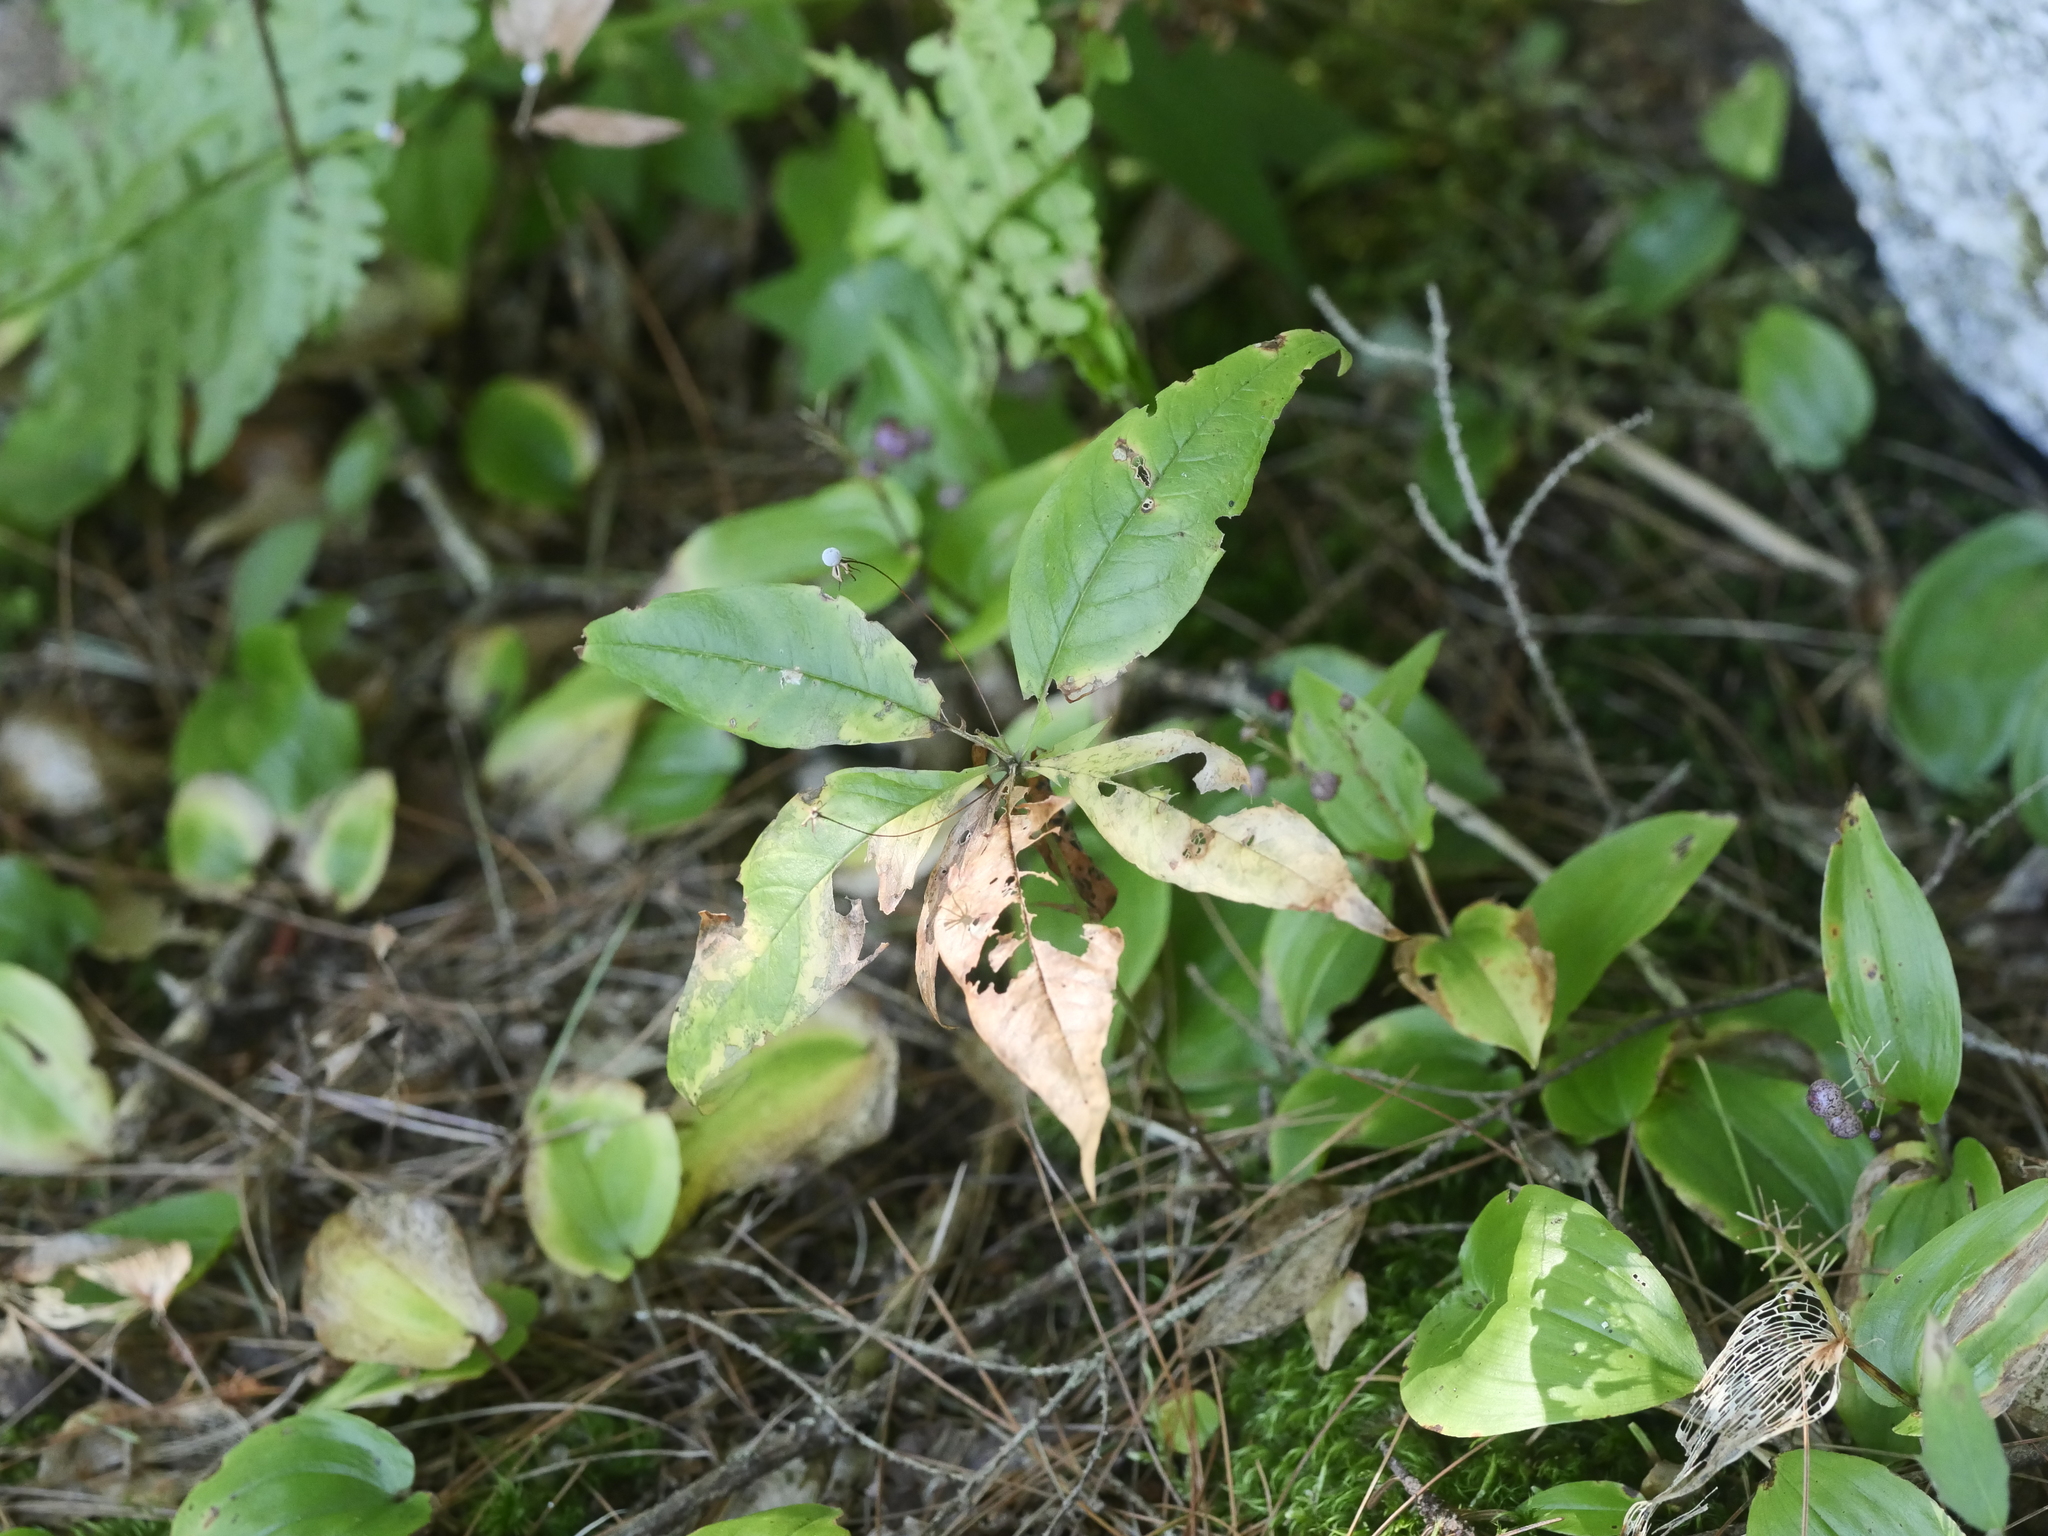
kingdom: Plantae
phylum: Tracheophyta
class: Magnoliopsida
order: Ericales
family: Primulaceae
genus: Lysimachia
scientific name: Lysimachia borealis
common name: American starflower
